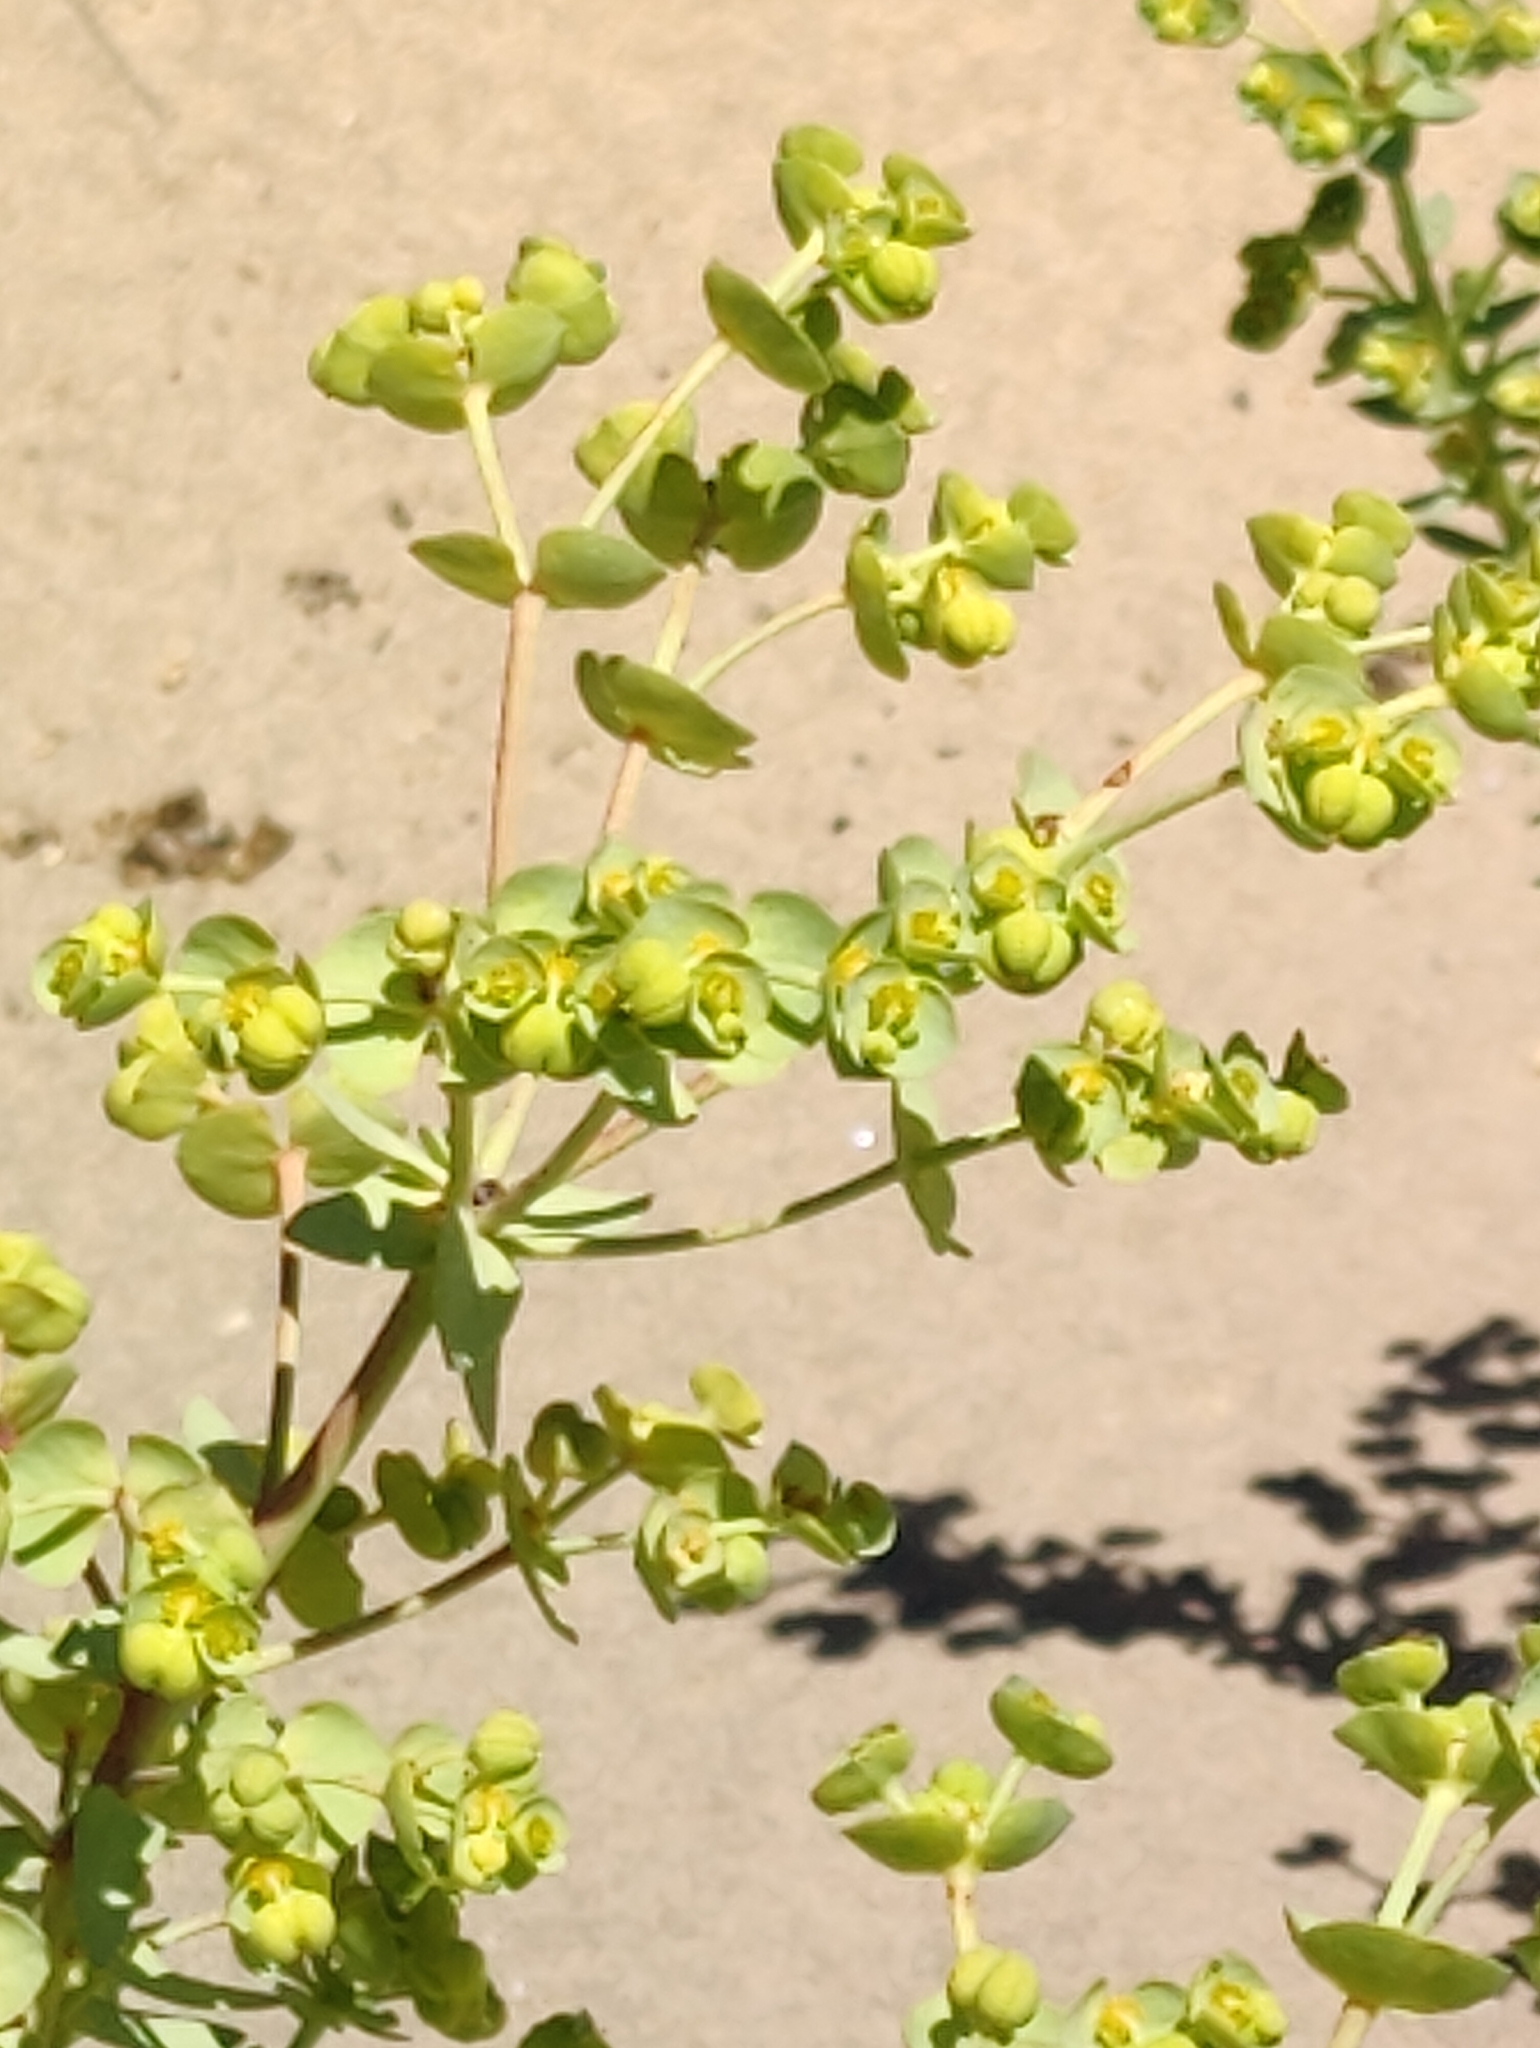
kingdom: Plantae
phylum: Tracheophyta
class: Magnoliopsida
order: Malpighiales
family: Euphorbiaceae
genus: Euphorbia
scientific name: Euphorbia paralias
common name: Sea spurge
